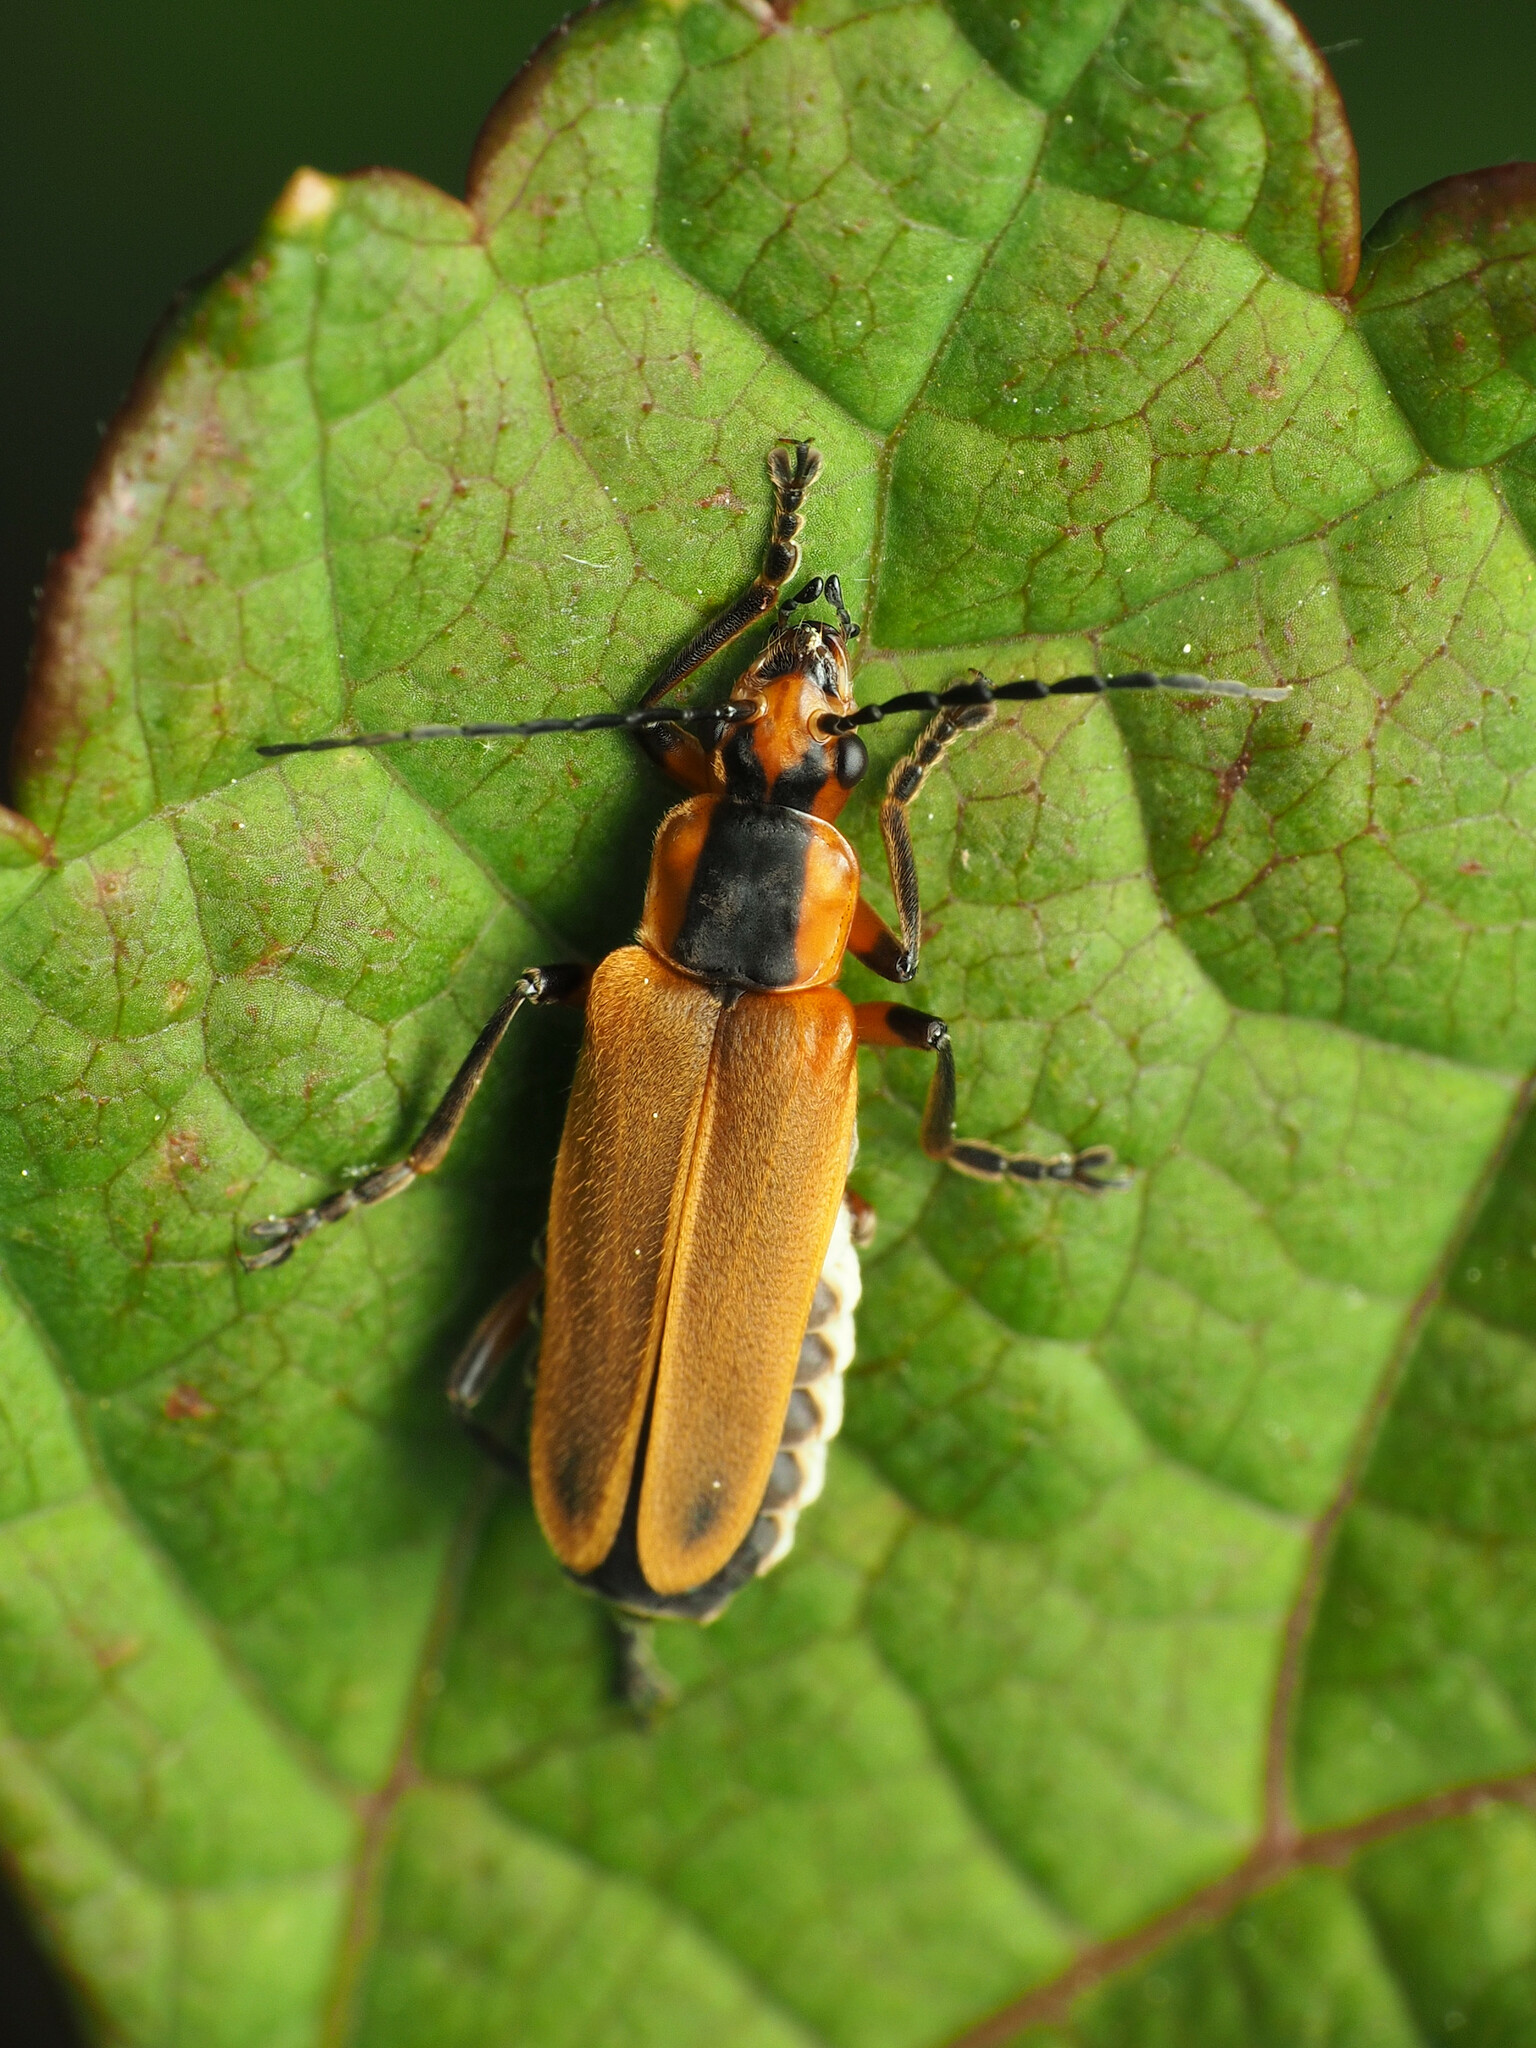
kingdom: Animalia
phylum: Arthropoda
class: Insecta
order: Coleoptera
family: Cantharidae
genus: Chauliognathus
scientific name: Chauliognathus marginatus
